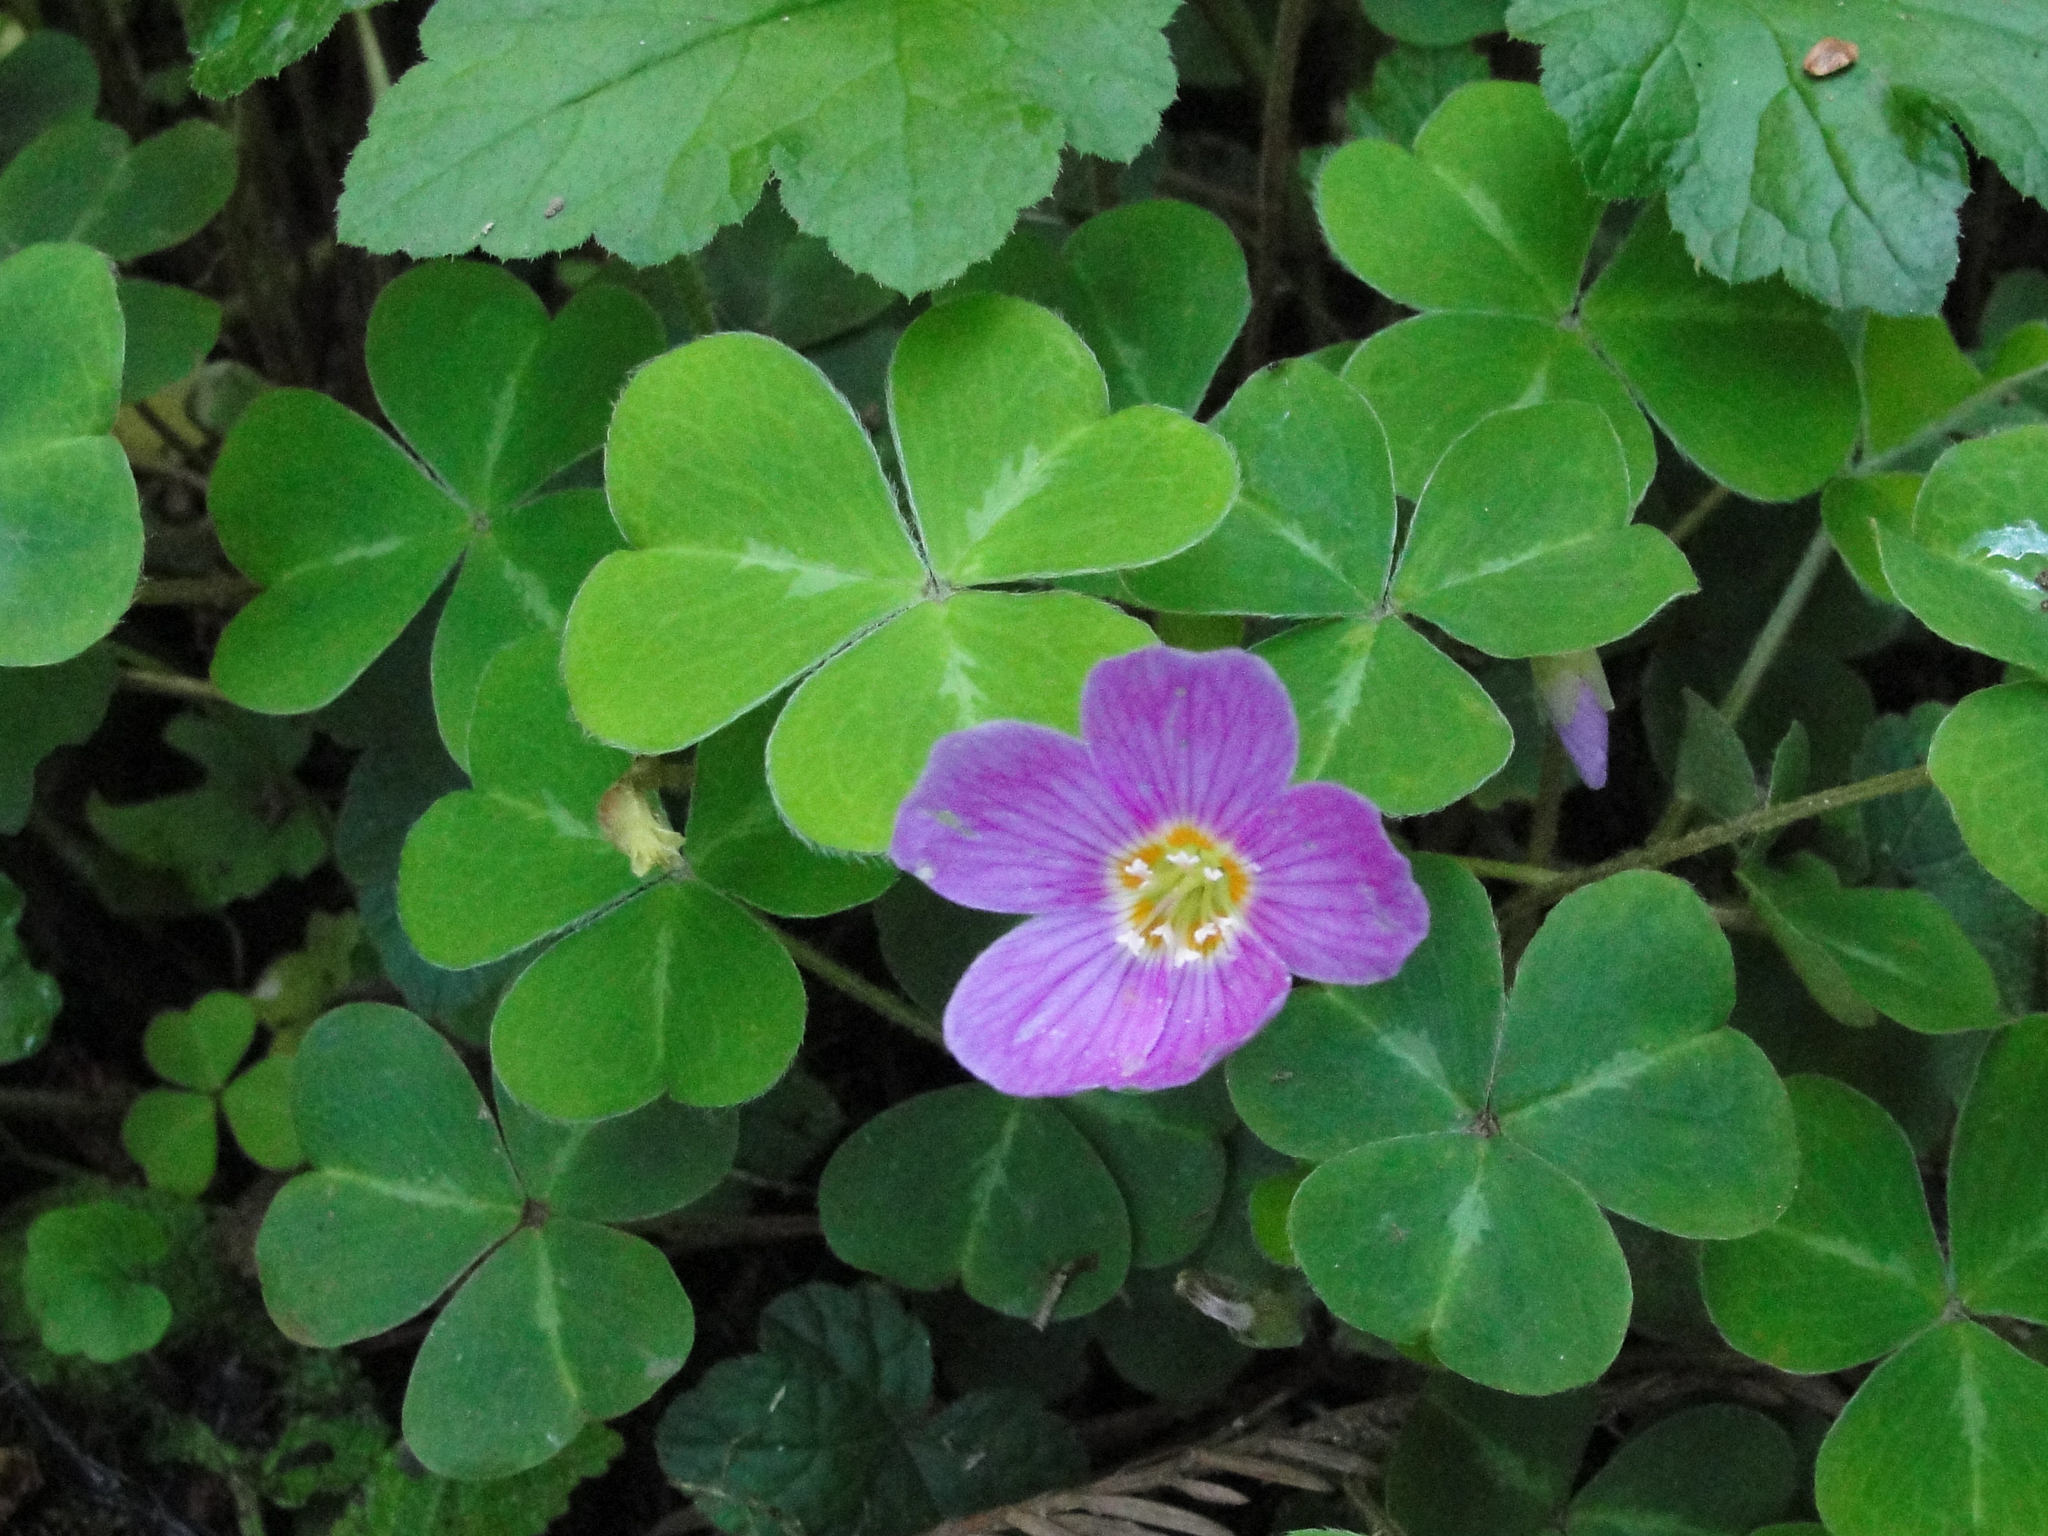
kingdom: Plantae
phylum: Tracheophyta
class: Magnoliopsida
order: Oxalidales
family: Oxalidaceae
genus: Oxalis
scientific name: Oxalis oregana
